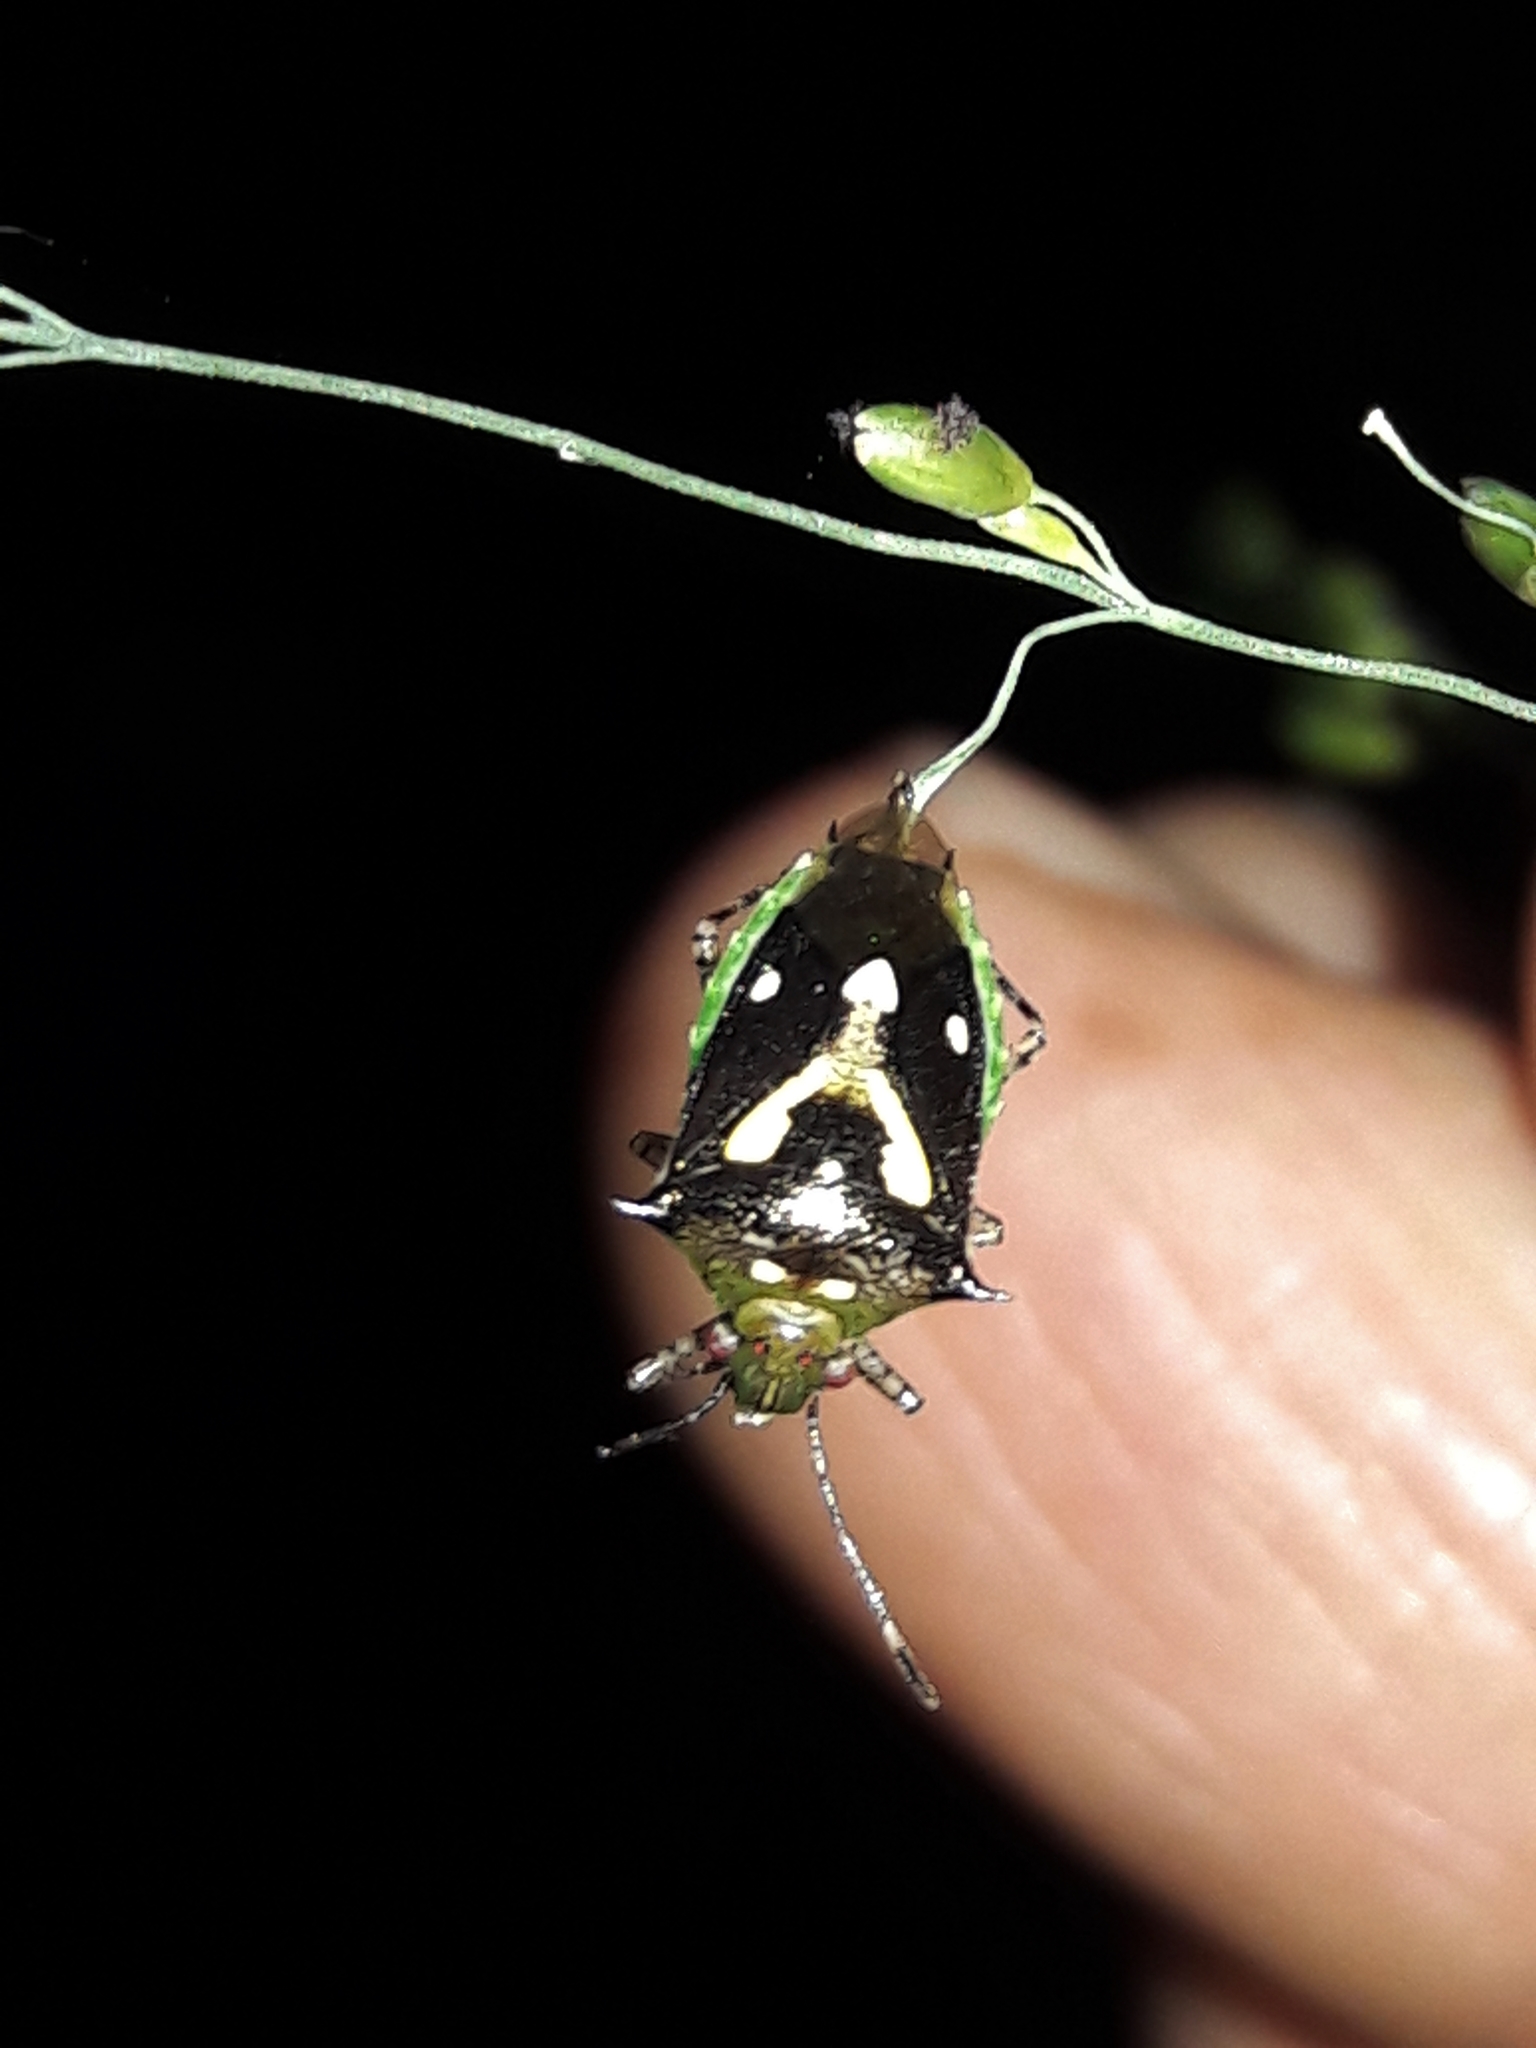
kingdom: Animalia
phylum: Arthropoda
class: Insecta
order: Hemiptera
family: Pentatomidae
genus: Mormidea
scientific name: Mormidea ypsilon
